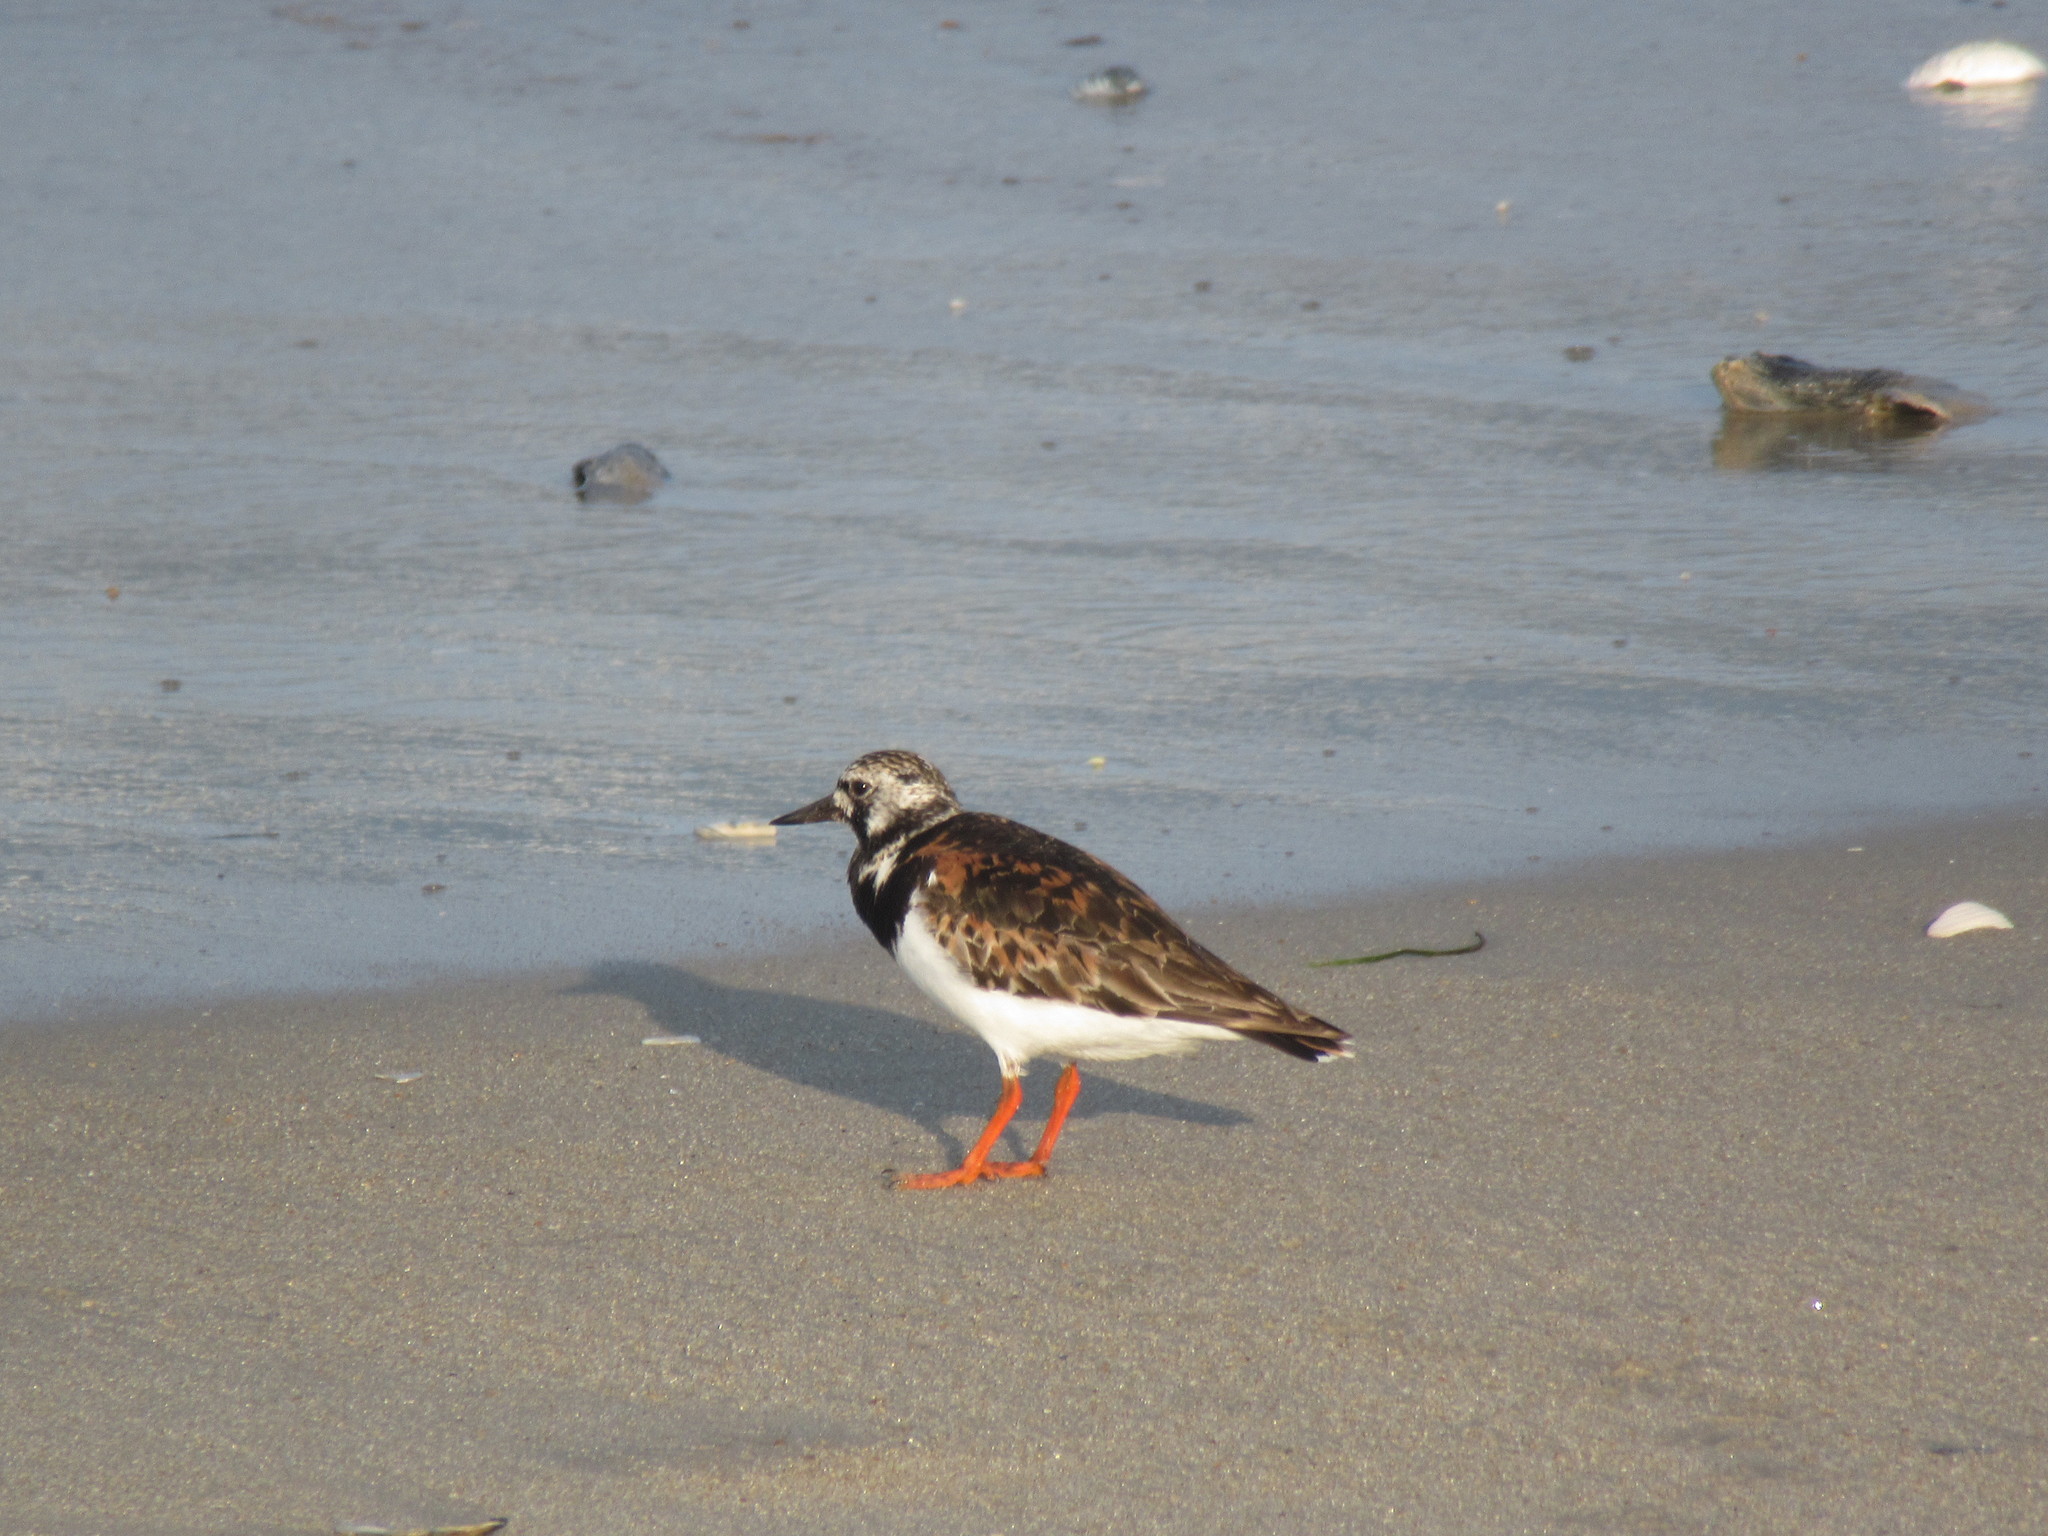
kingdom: Animalia
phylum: Chordata
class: Aves
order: Charadriiformes
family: Scolopacidae
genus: Arenaria
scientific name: Arenaria interpres
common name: Ruddy turnstone
